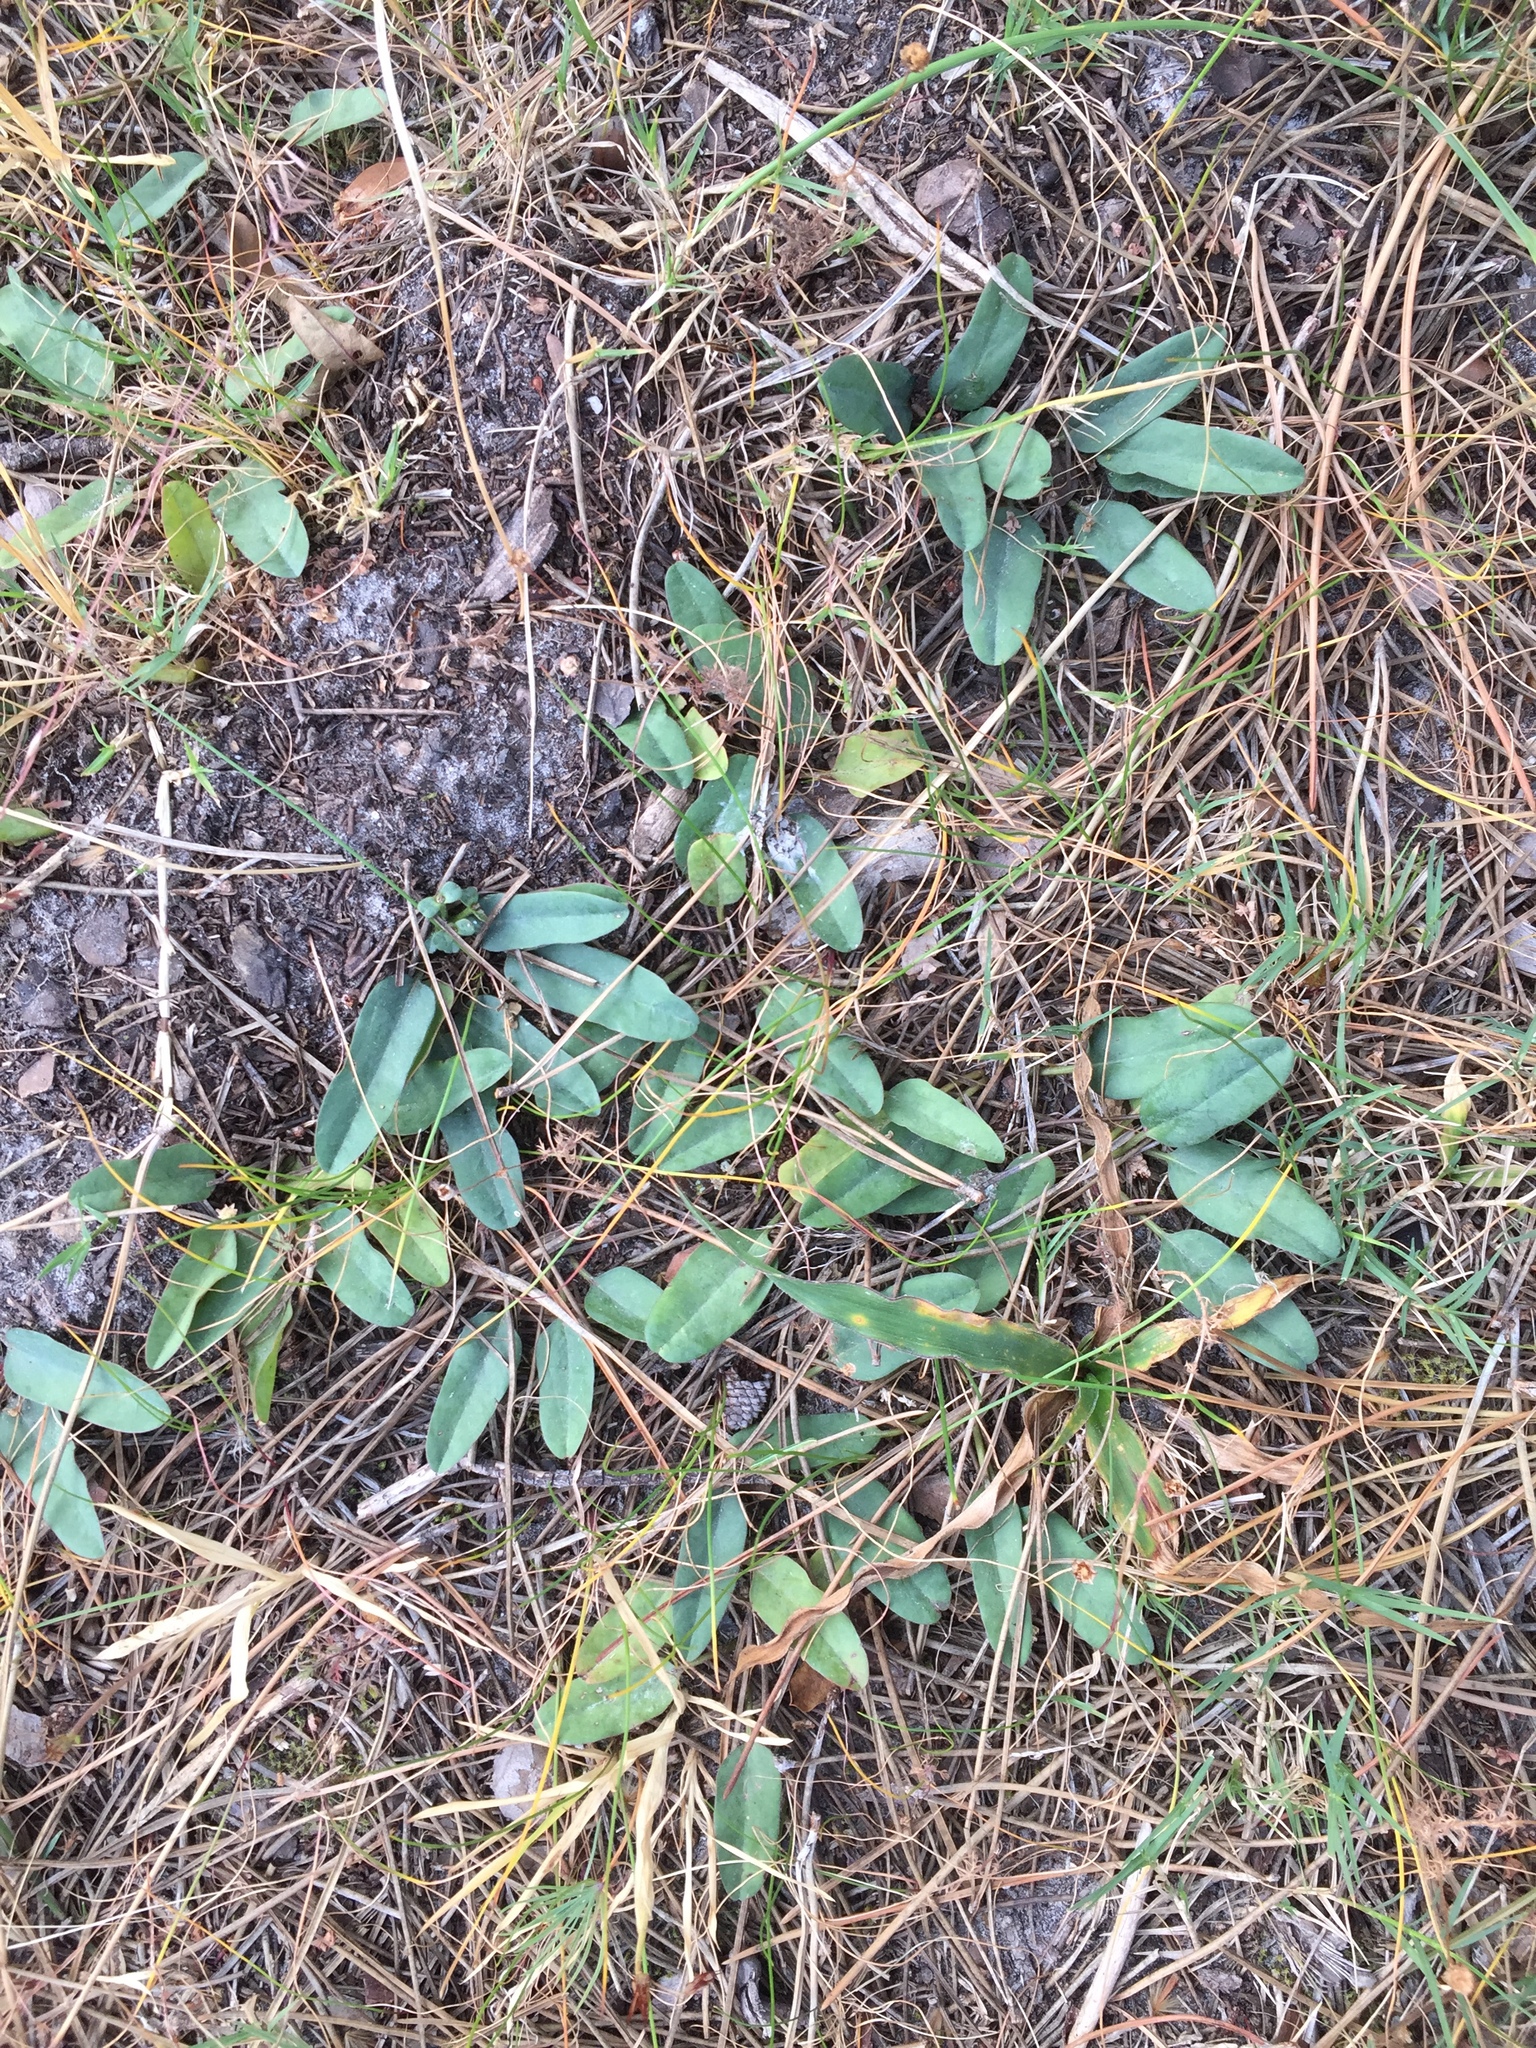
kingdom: Plantae
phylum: Tracheophyta
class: Magnoliopsida
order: Malpighiales
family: Euphorbiaceae
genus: Euphorbia
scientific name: Euphorbia tuberosa
